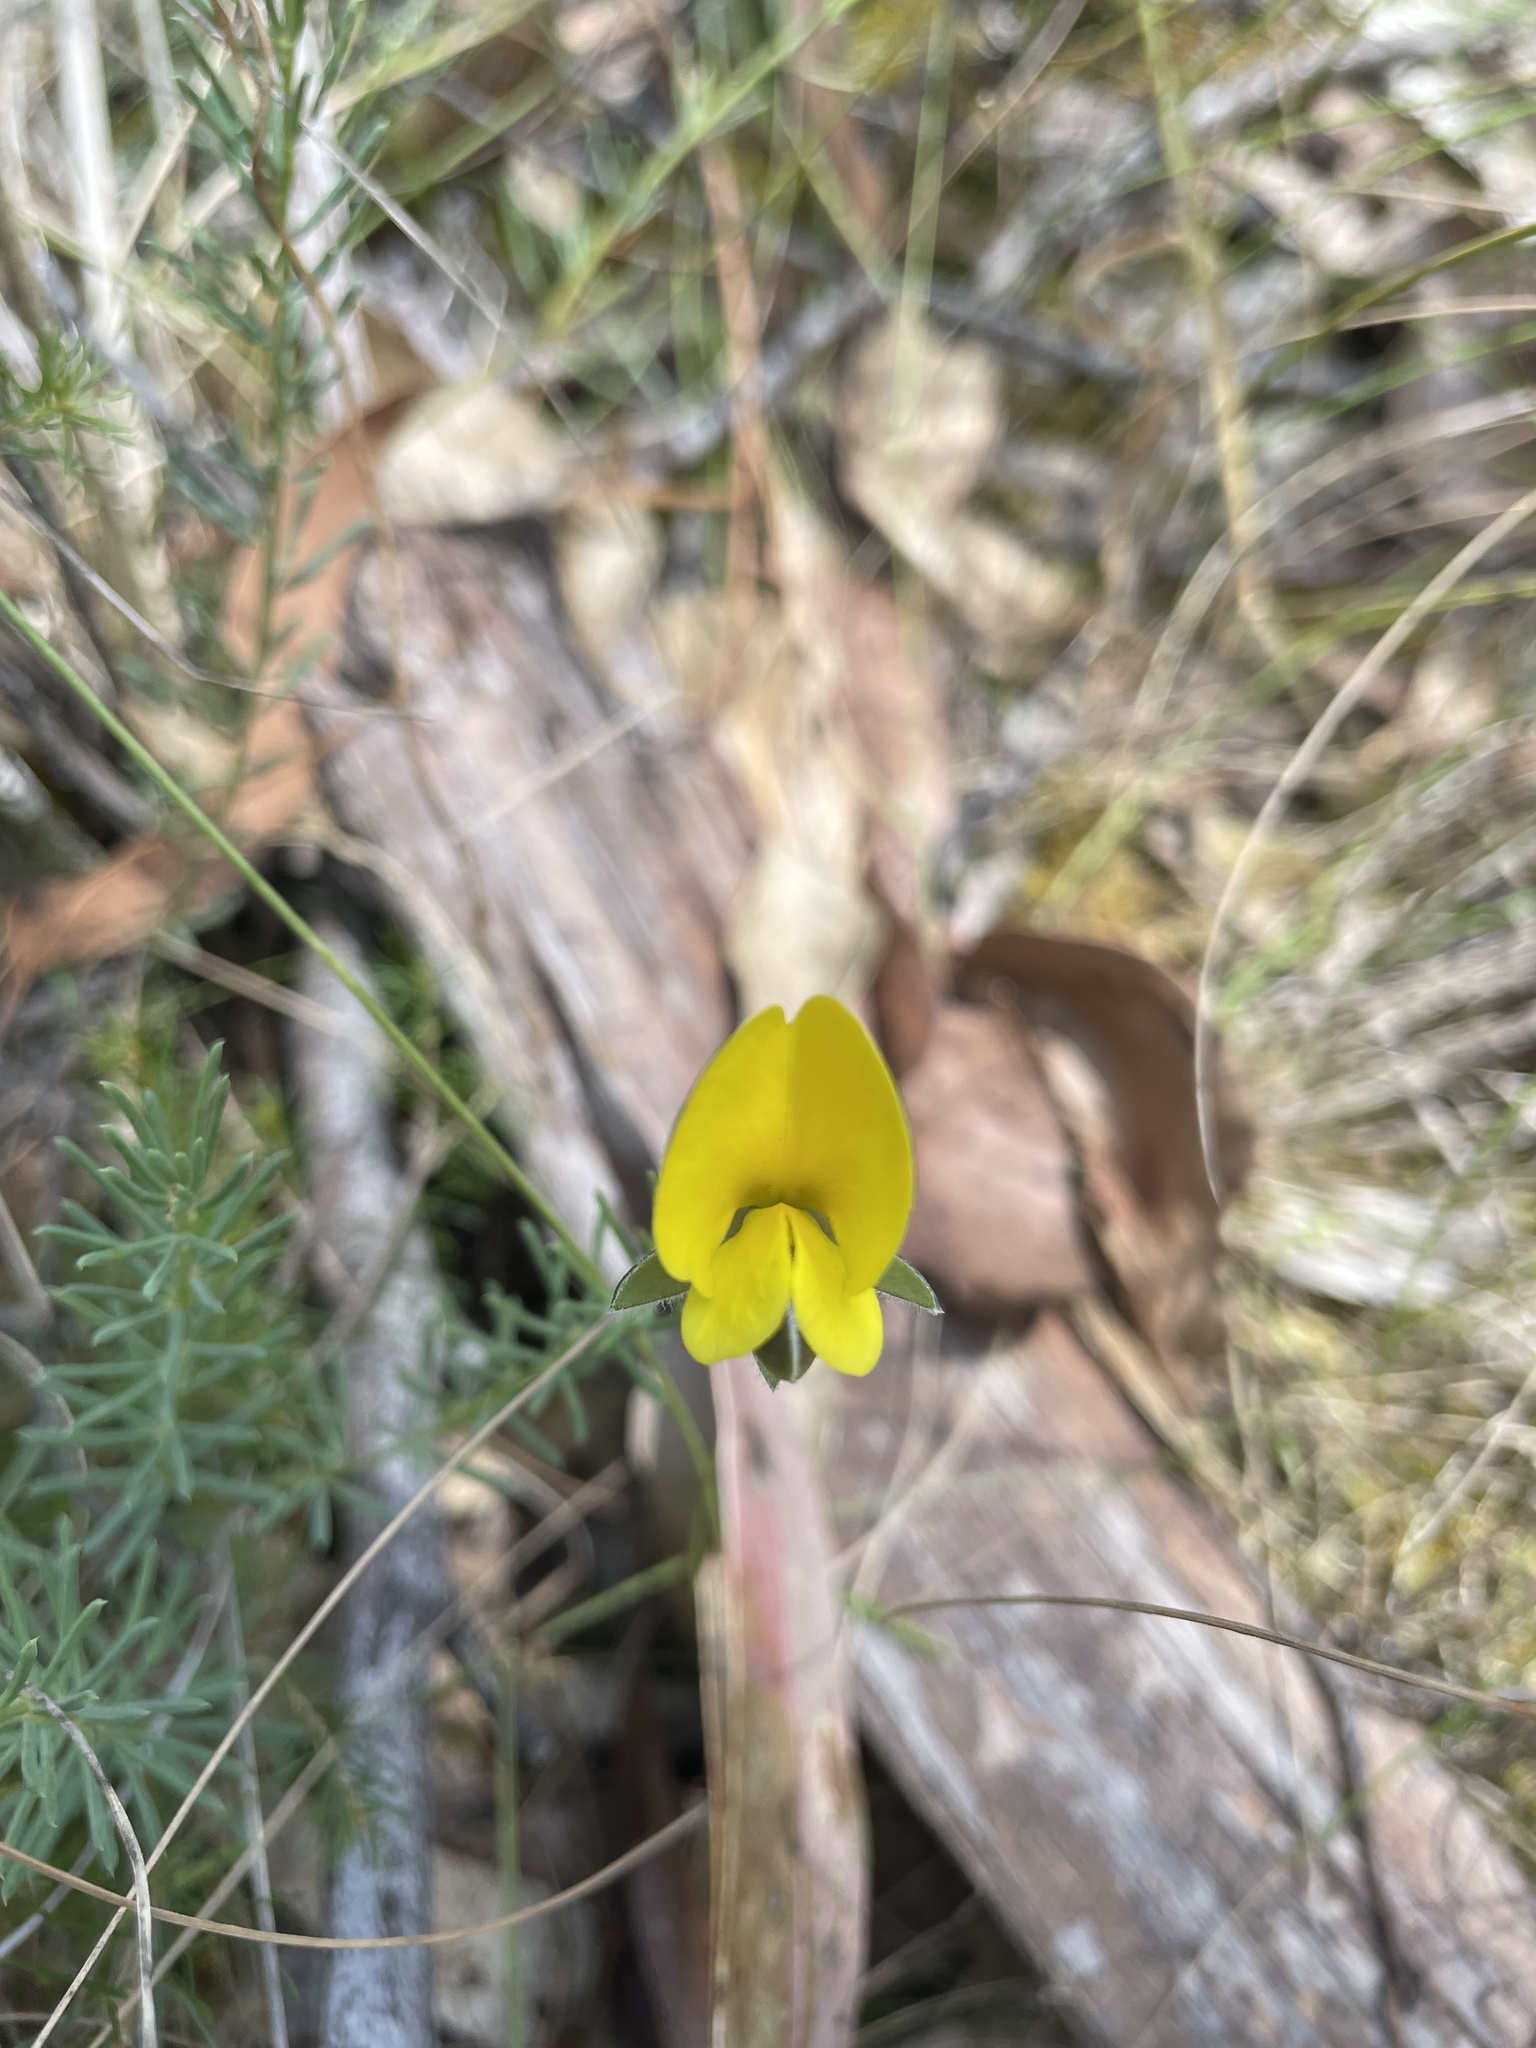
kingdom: Plantae
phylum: Tracheophyta
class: Magnoliopsida
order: Fabales
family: Fabaceae
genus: Gompholobium
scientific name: Gompholobium huegelii
